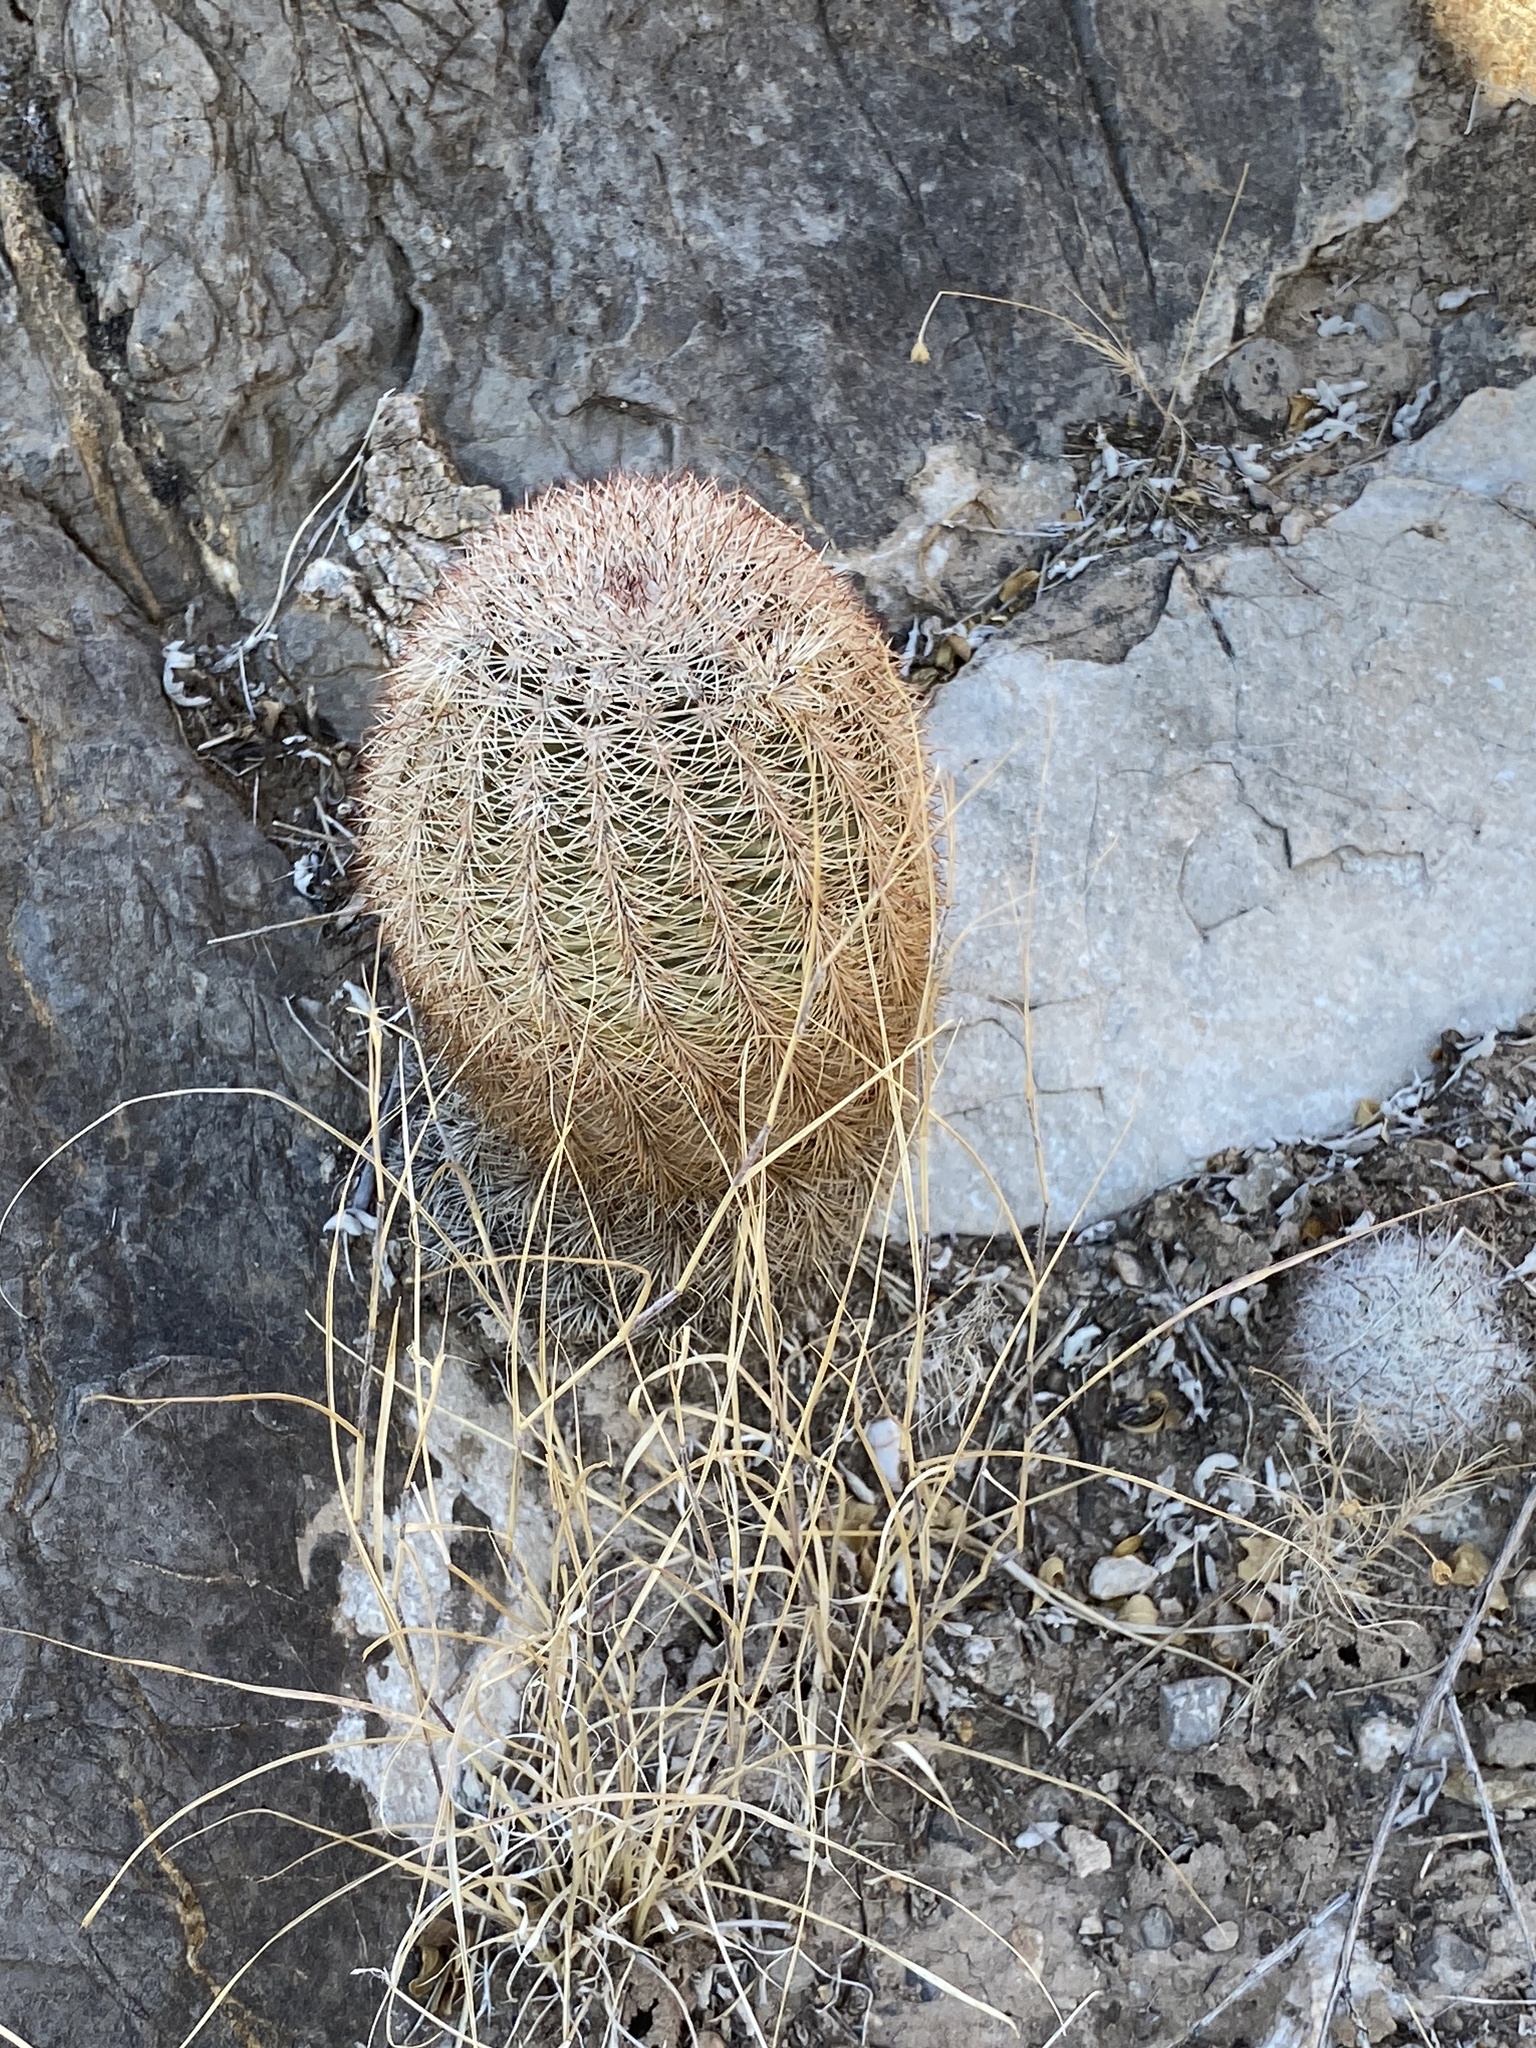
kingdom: Plantae
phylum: Tracheophyta
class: Magnoliopsida
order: Caryophyllales
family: Cactaceae
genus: Echinocereus
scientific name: Echinocereus dasyacanthus
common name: Spiny hedgehog cactus
